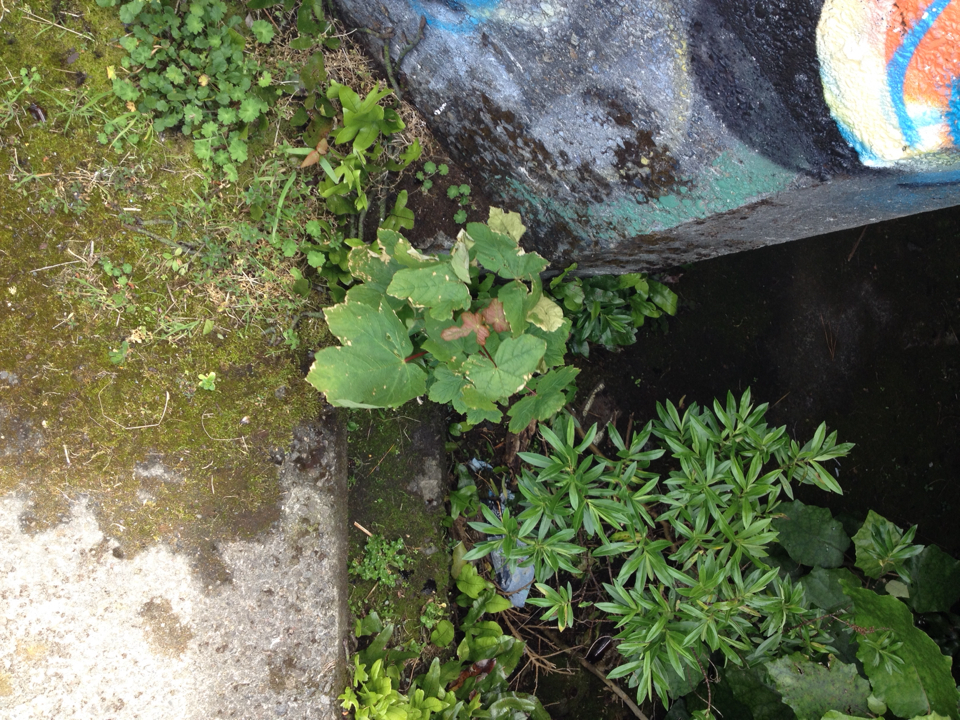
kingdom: Plantae
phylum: Tracheophyta
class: Magnoliopsida
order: Sapindales
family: Sapindaceae
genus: Acer
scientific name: Acer pseudoplatanus
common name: Sycamore
